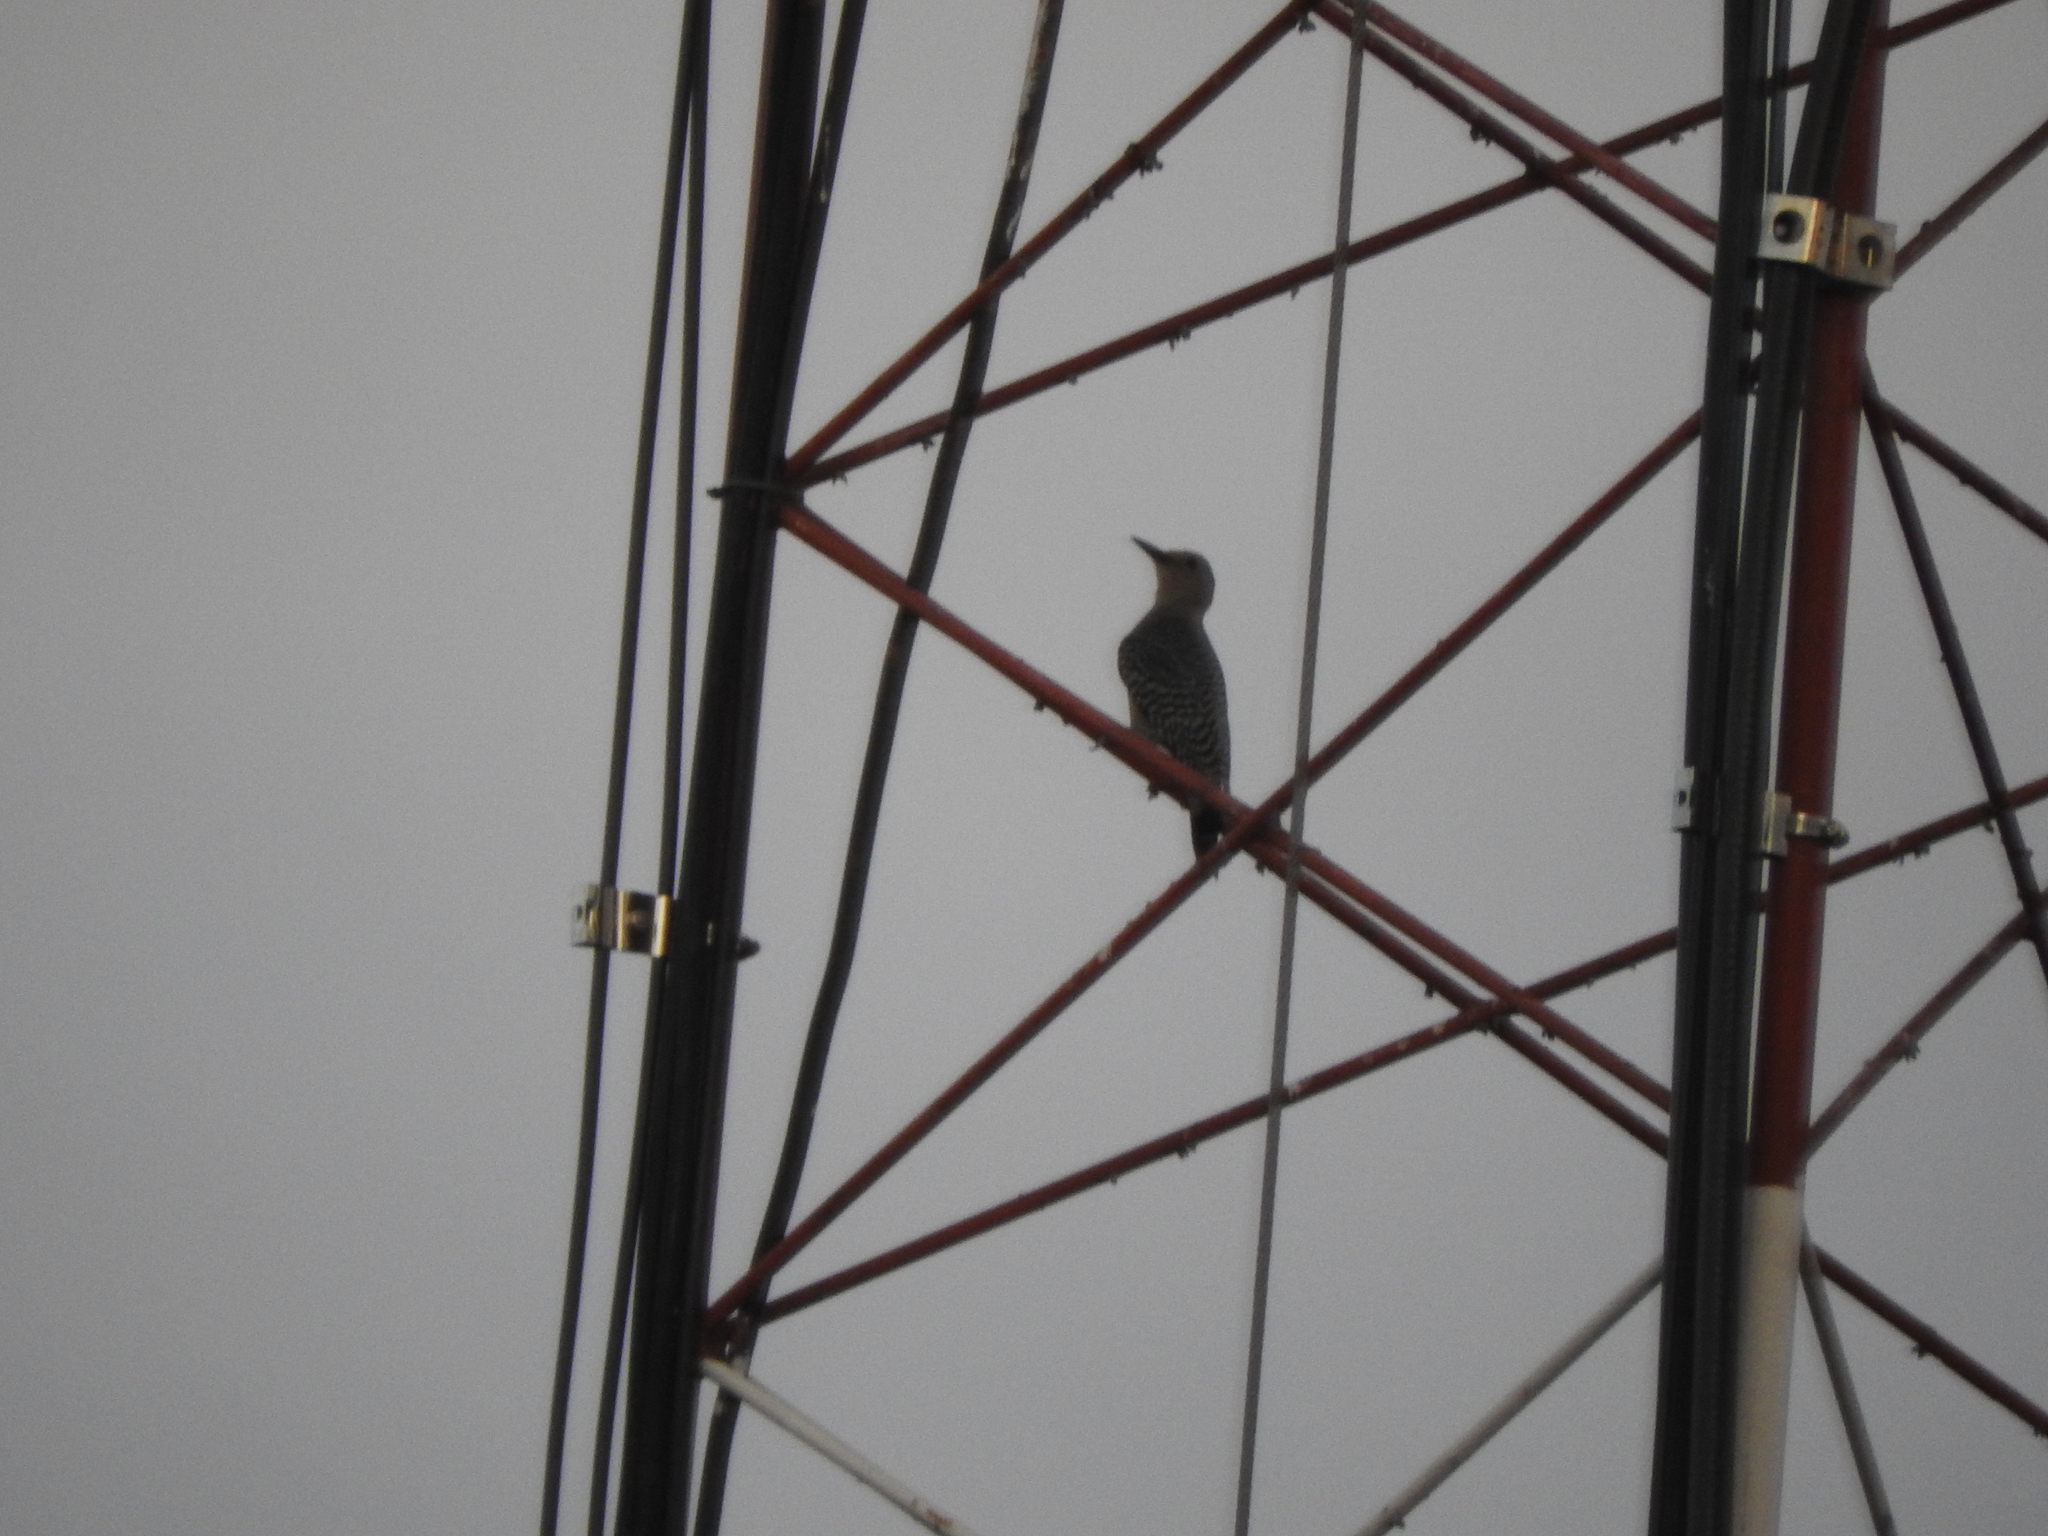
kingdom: Animalia
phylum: Chordata
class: Aves
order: Piciformes
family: Picidae
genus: Melanerpes
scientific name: Melanerpes aurifrons
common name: Golden-fronted woodpecker
